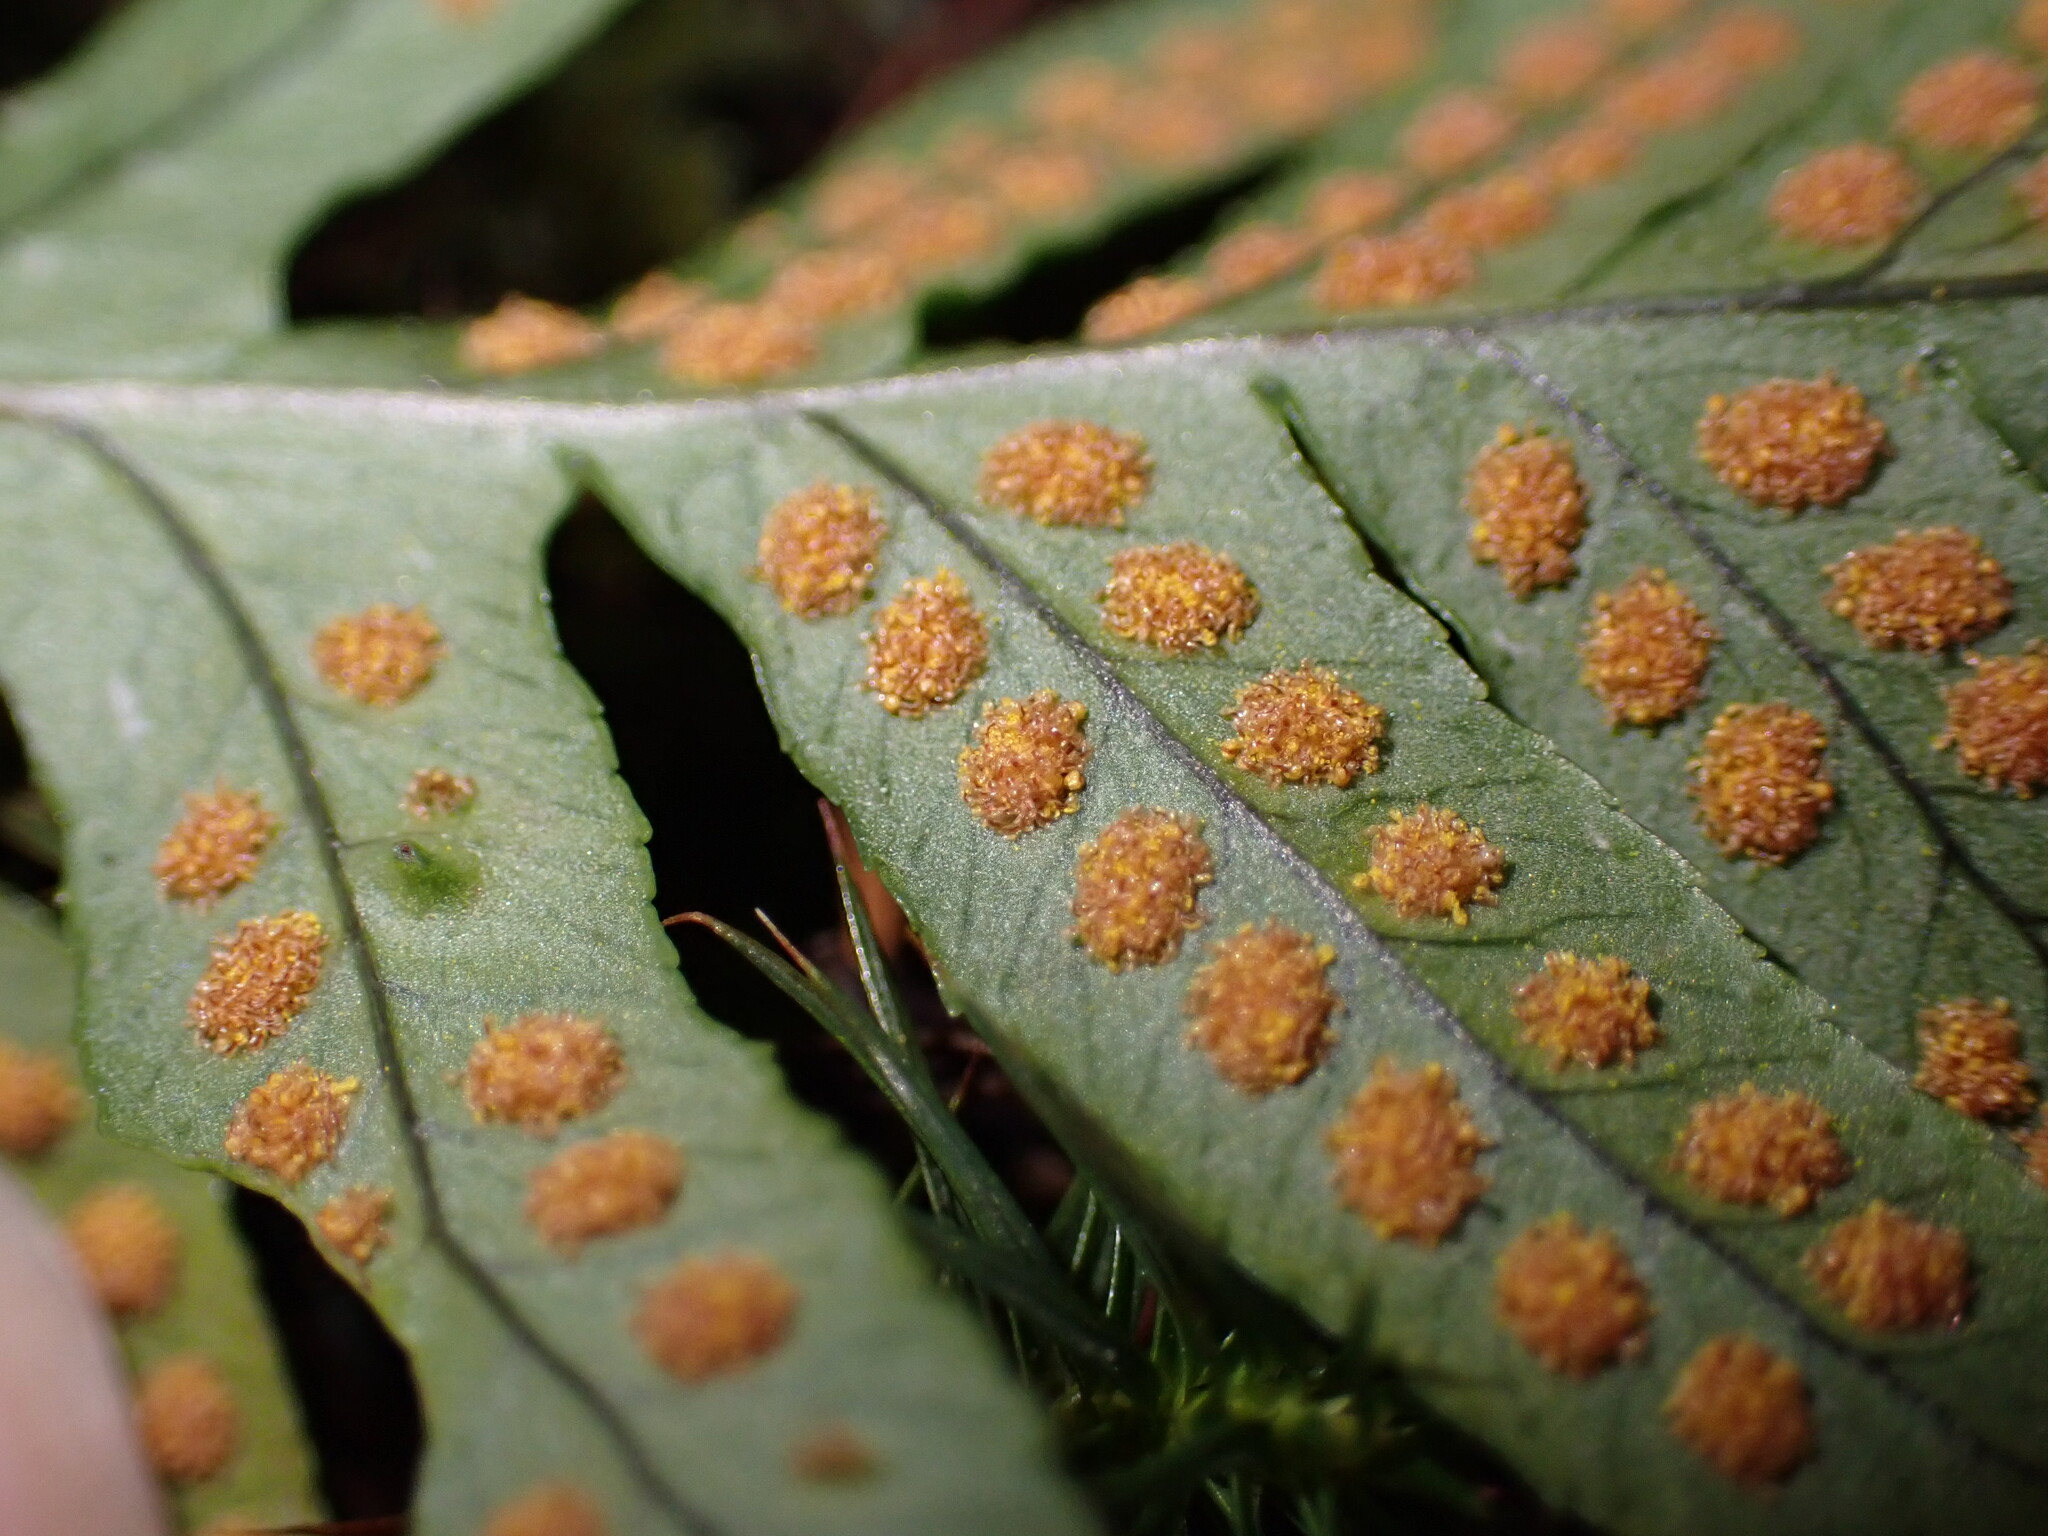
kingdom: Plantae
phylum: Tracheophyta
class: Polypodiopsida
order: Polypodiales
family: Polypodiaceae
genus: Polypodium
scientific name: Polypodium glycyrrhiza
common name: Licorice fern
